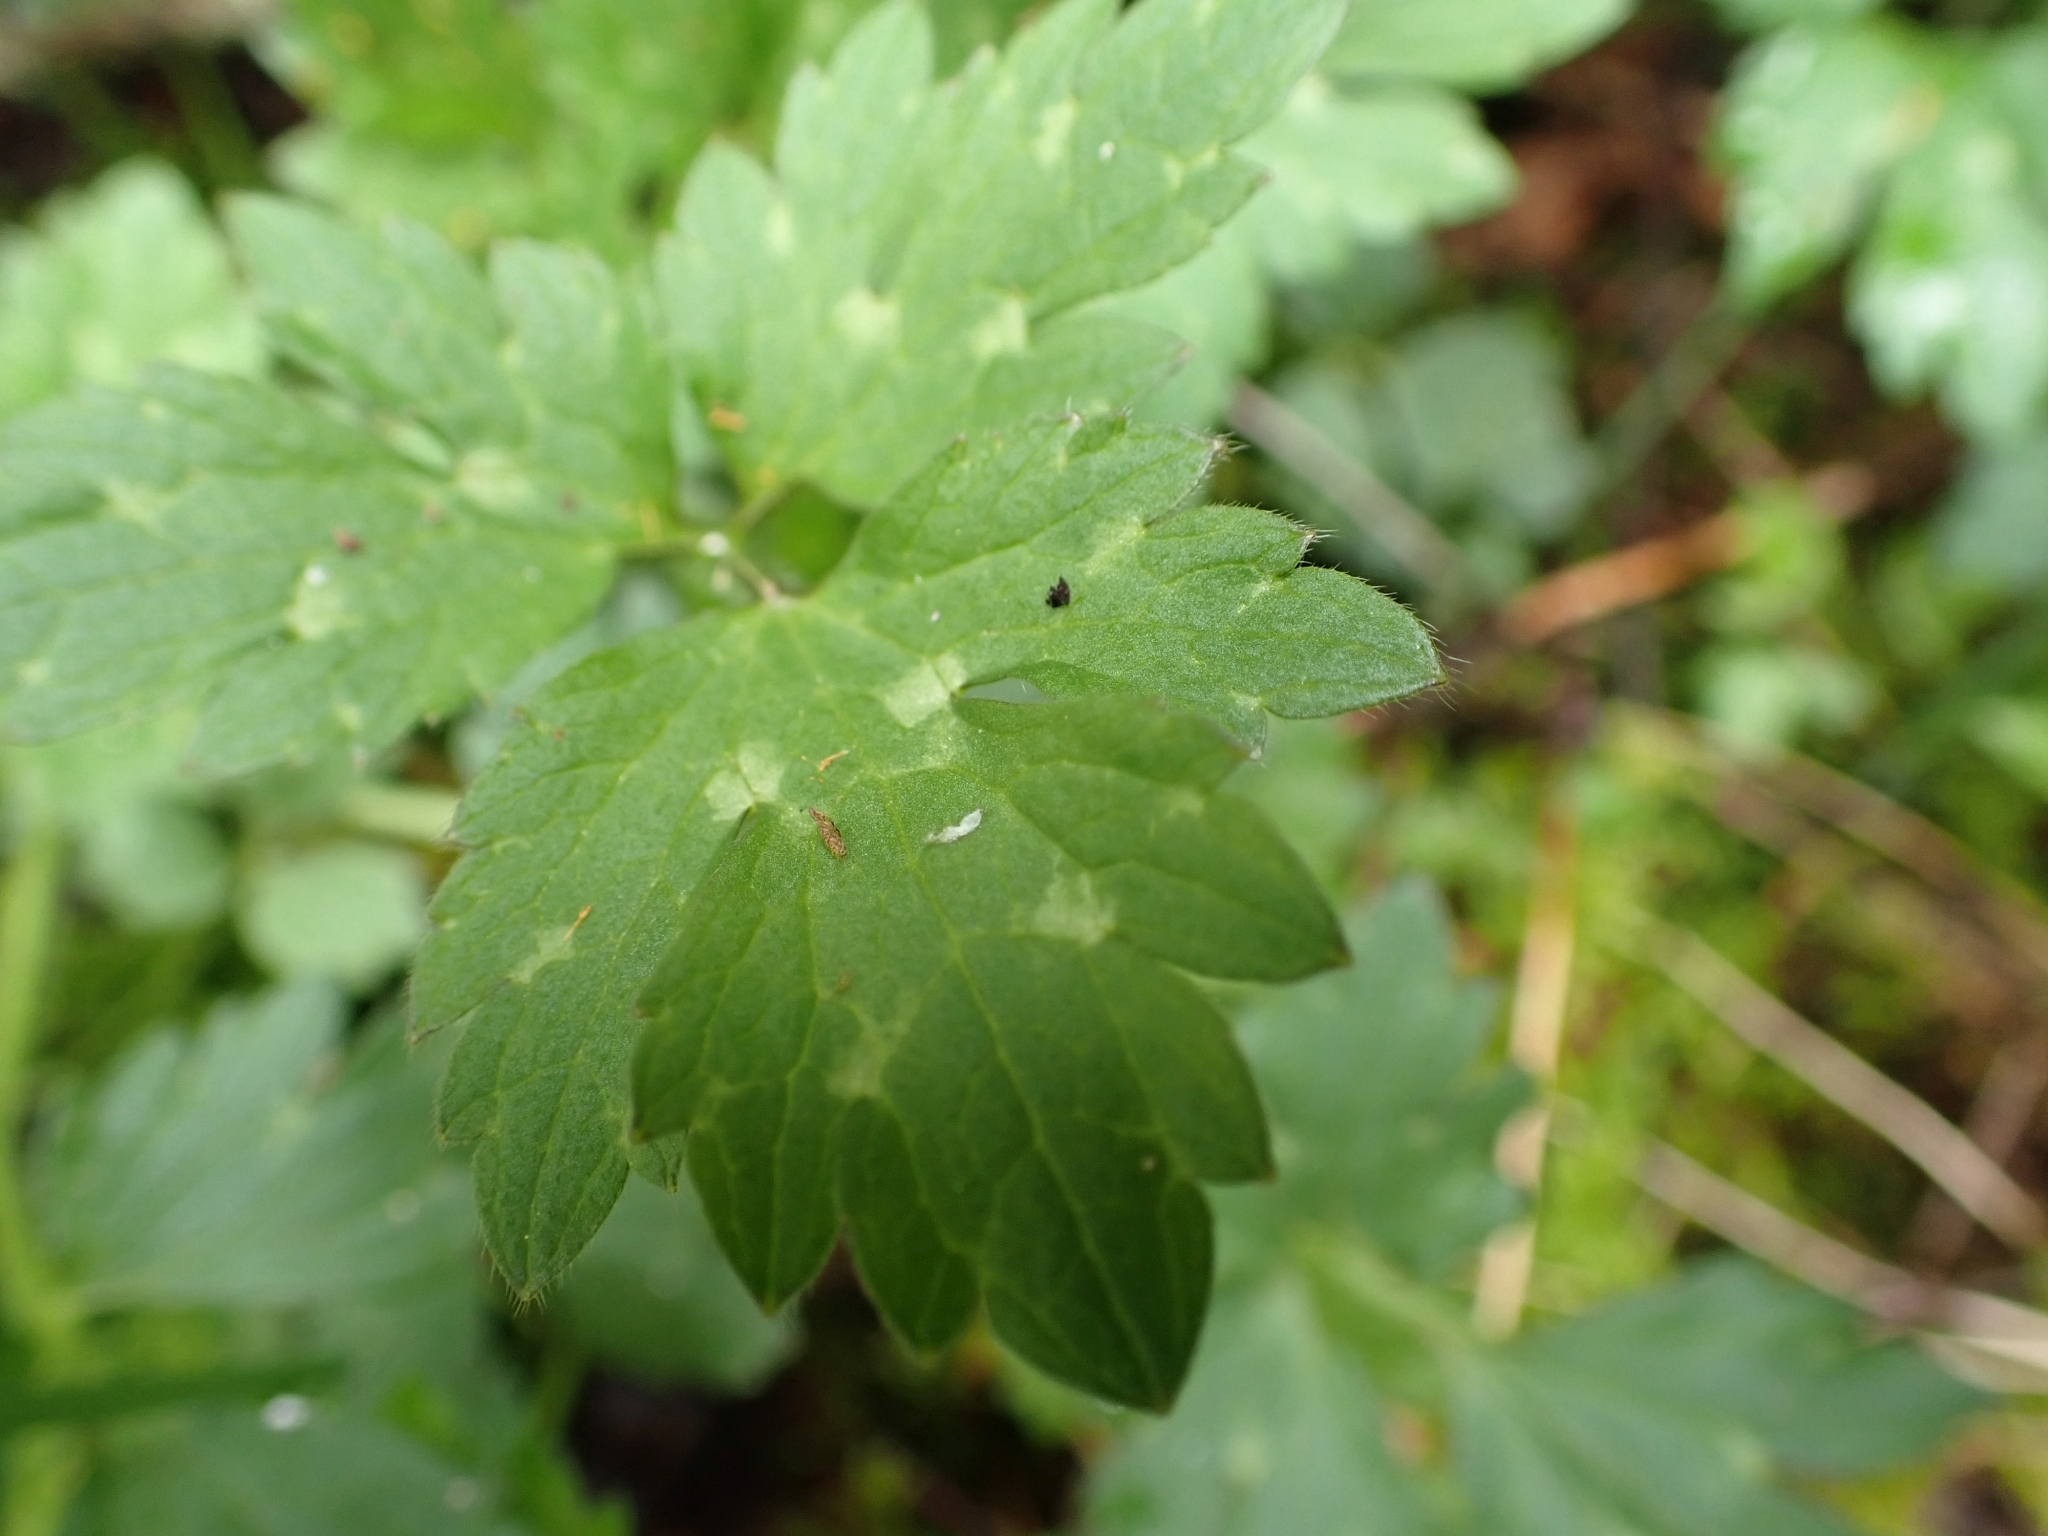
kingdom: Plantae
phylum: Tracheophyta
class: Magnoliopsida
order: Ranunculales
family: Ranunculaceae
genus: Ranunculus
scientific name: Ranunculus repens
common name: Creeping buttercup
